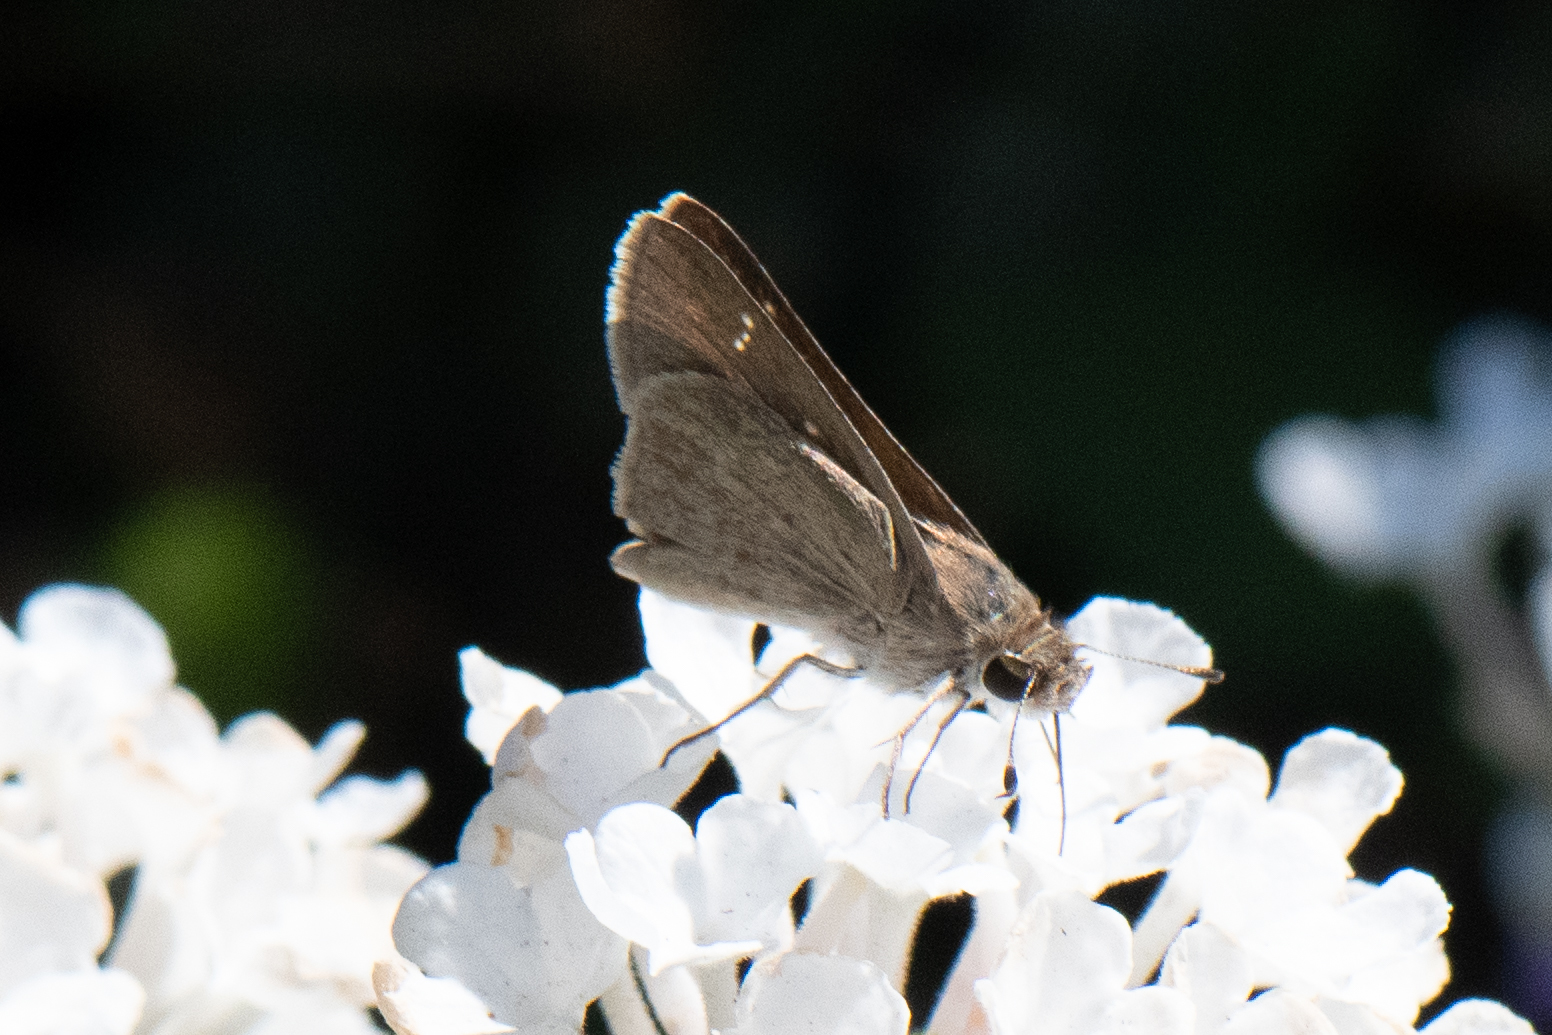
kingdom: Animalia
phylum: Arthropoda
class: Insecta
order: Lepidoptera
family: Hesperiidae
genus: Lerodea
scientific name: Lerodea eufala
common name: Eufala skipper
